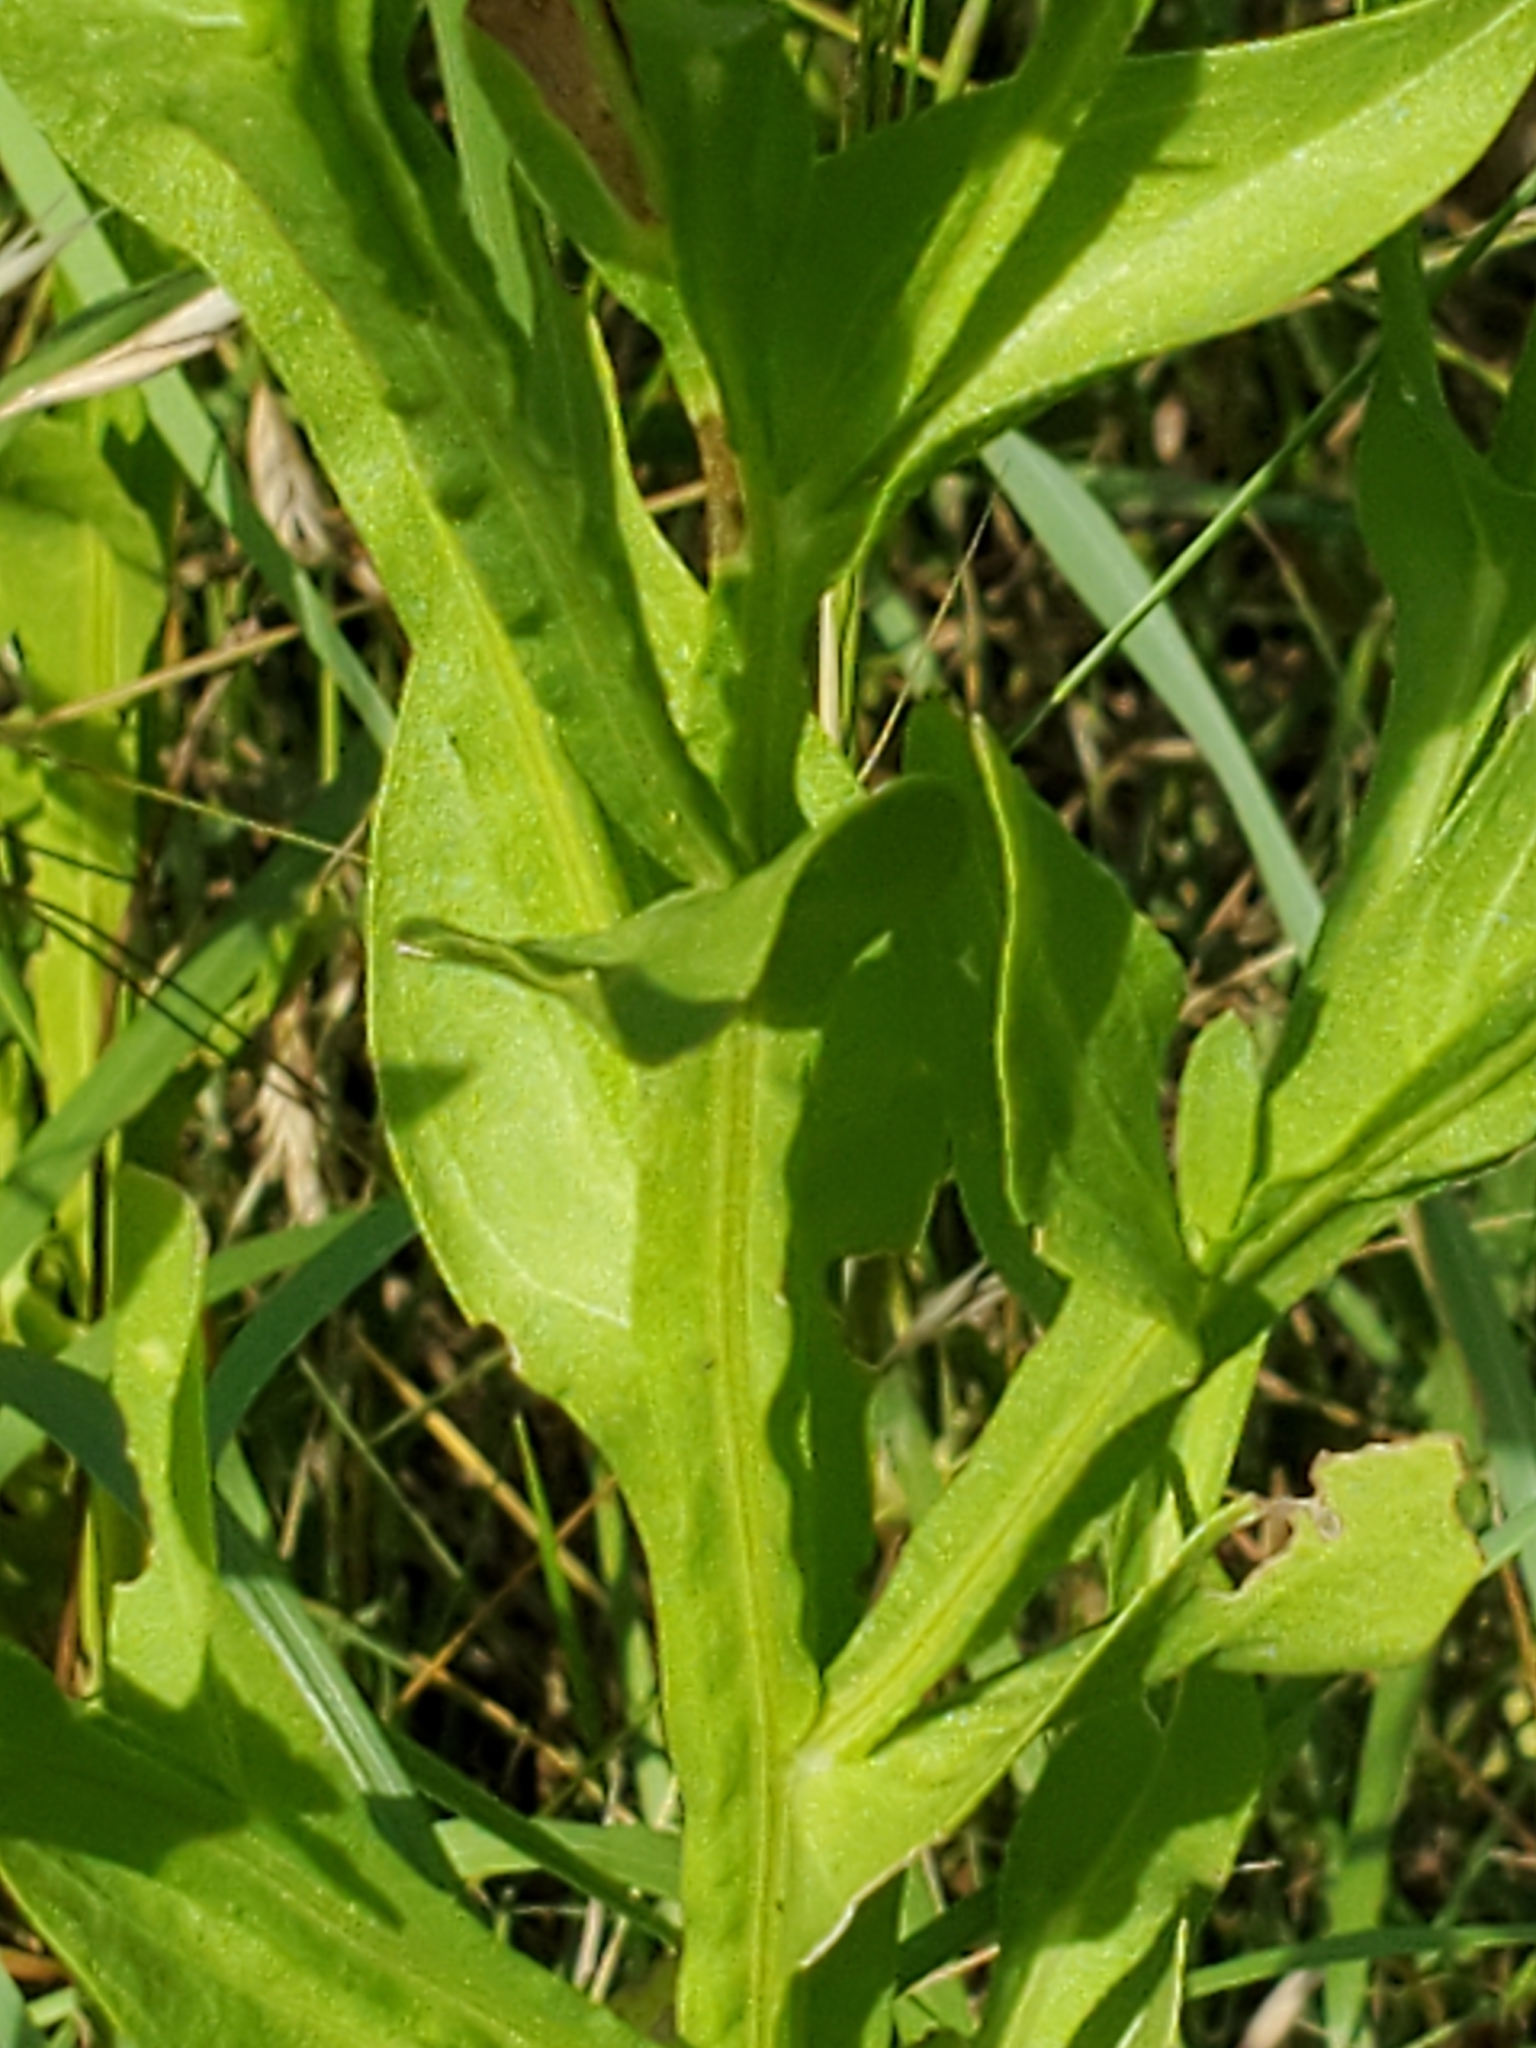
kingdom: Plantae
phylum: Tracheophyta
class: Magnoliopsida
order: Asterales
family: Asteraceae
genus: Helenium
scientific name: Helenium microcephalum
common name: Smallhead sneezeweed
